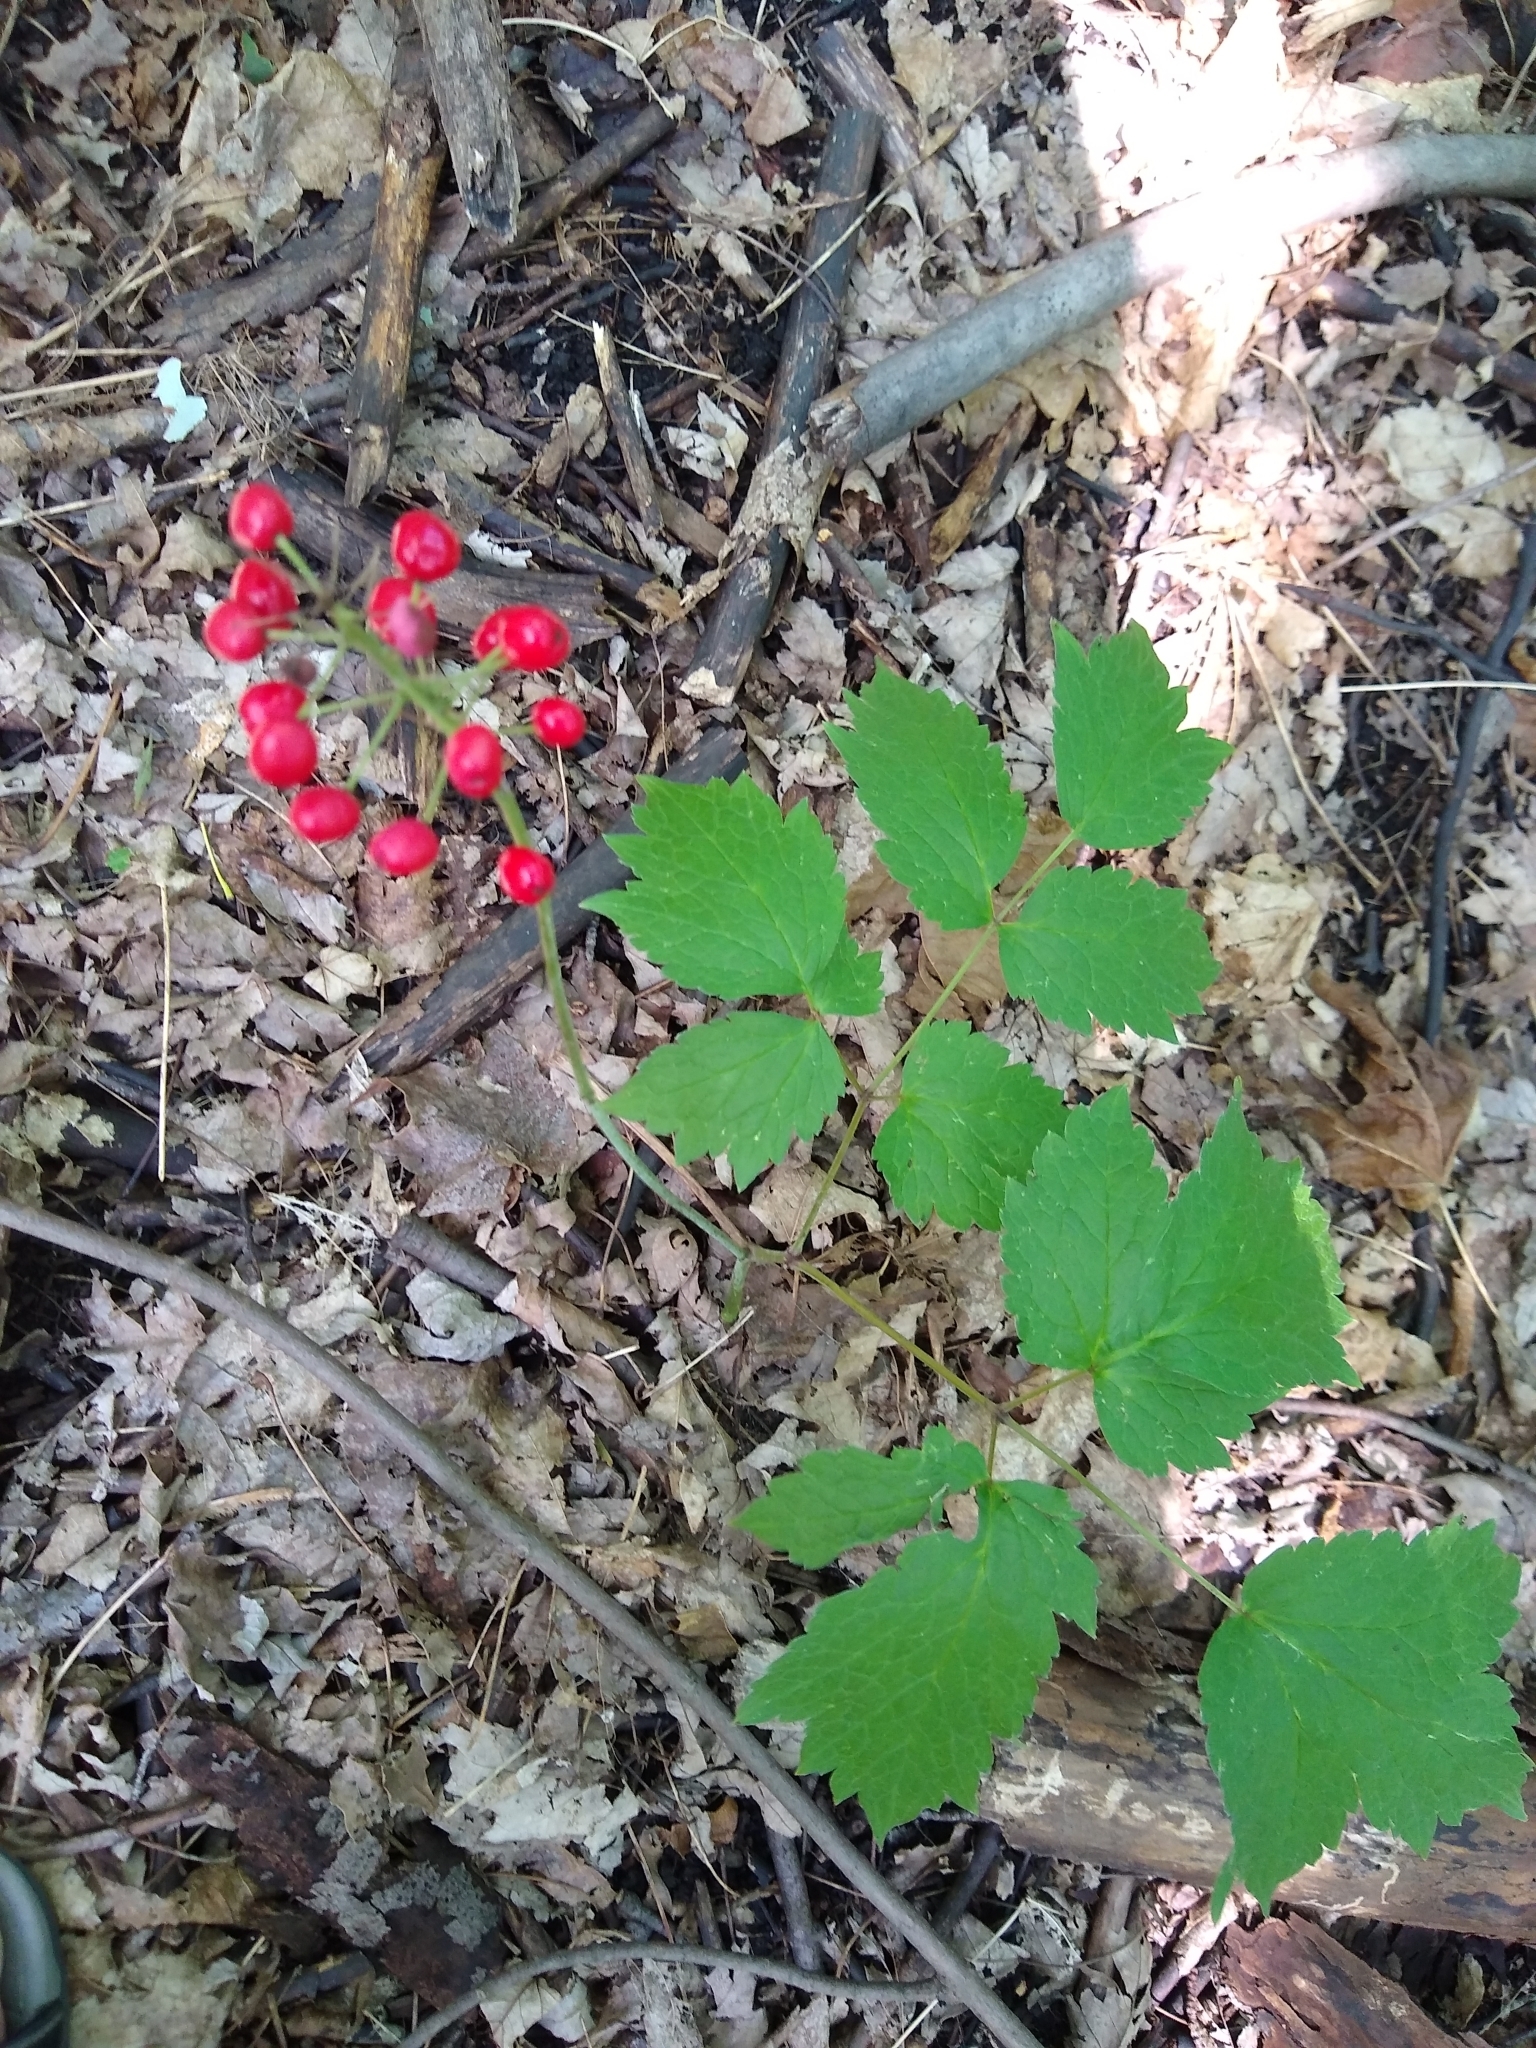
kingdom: Plantae
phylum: Tracheophyta
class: Magnoliopsida
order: Ranunculales
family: Ranunculaceae
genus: Actaea
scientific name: Actaea rubra
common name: Red baneberry
